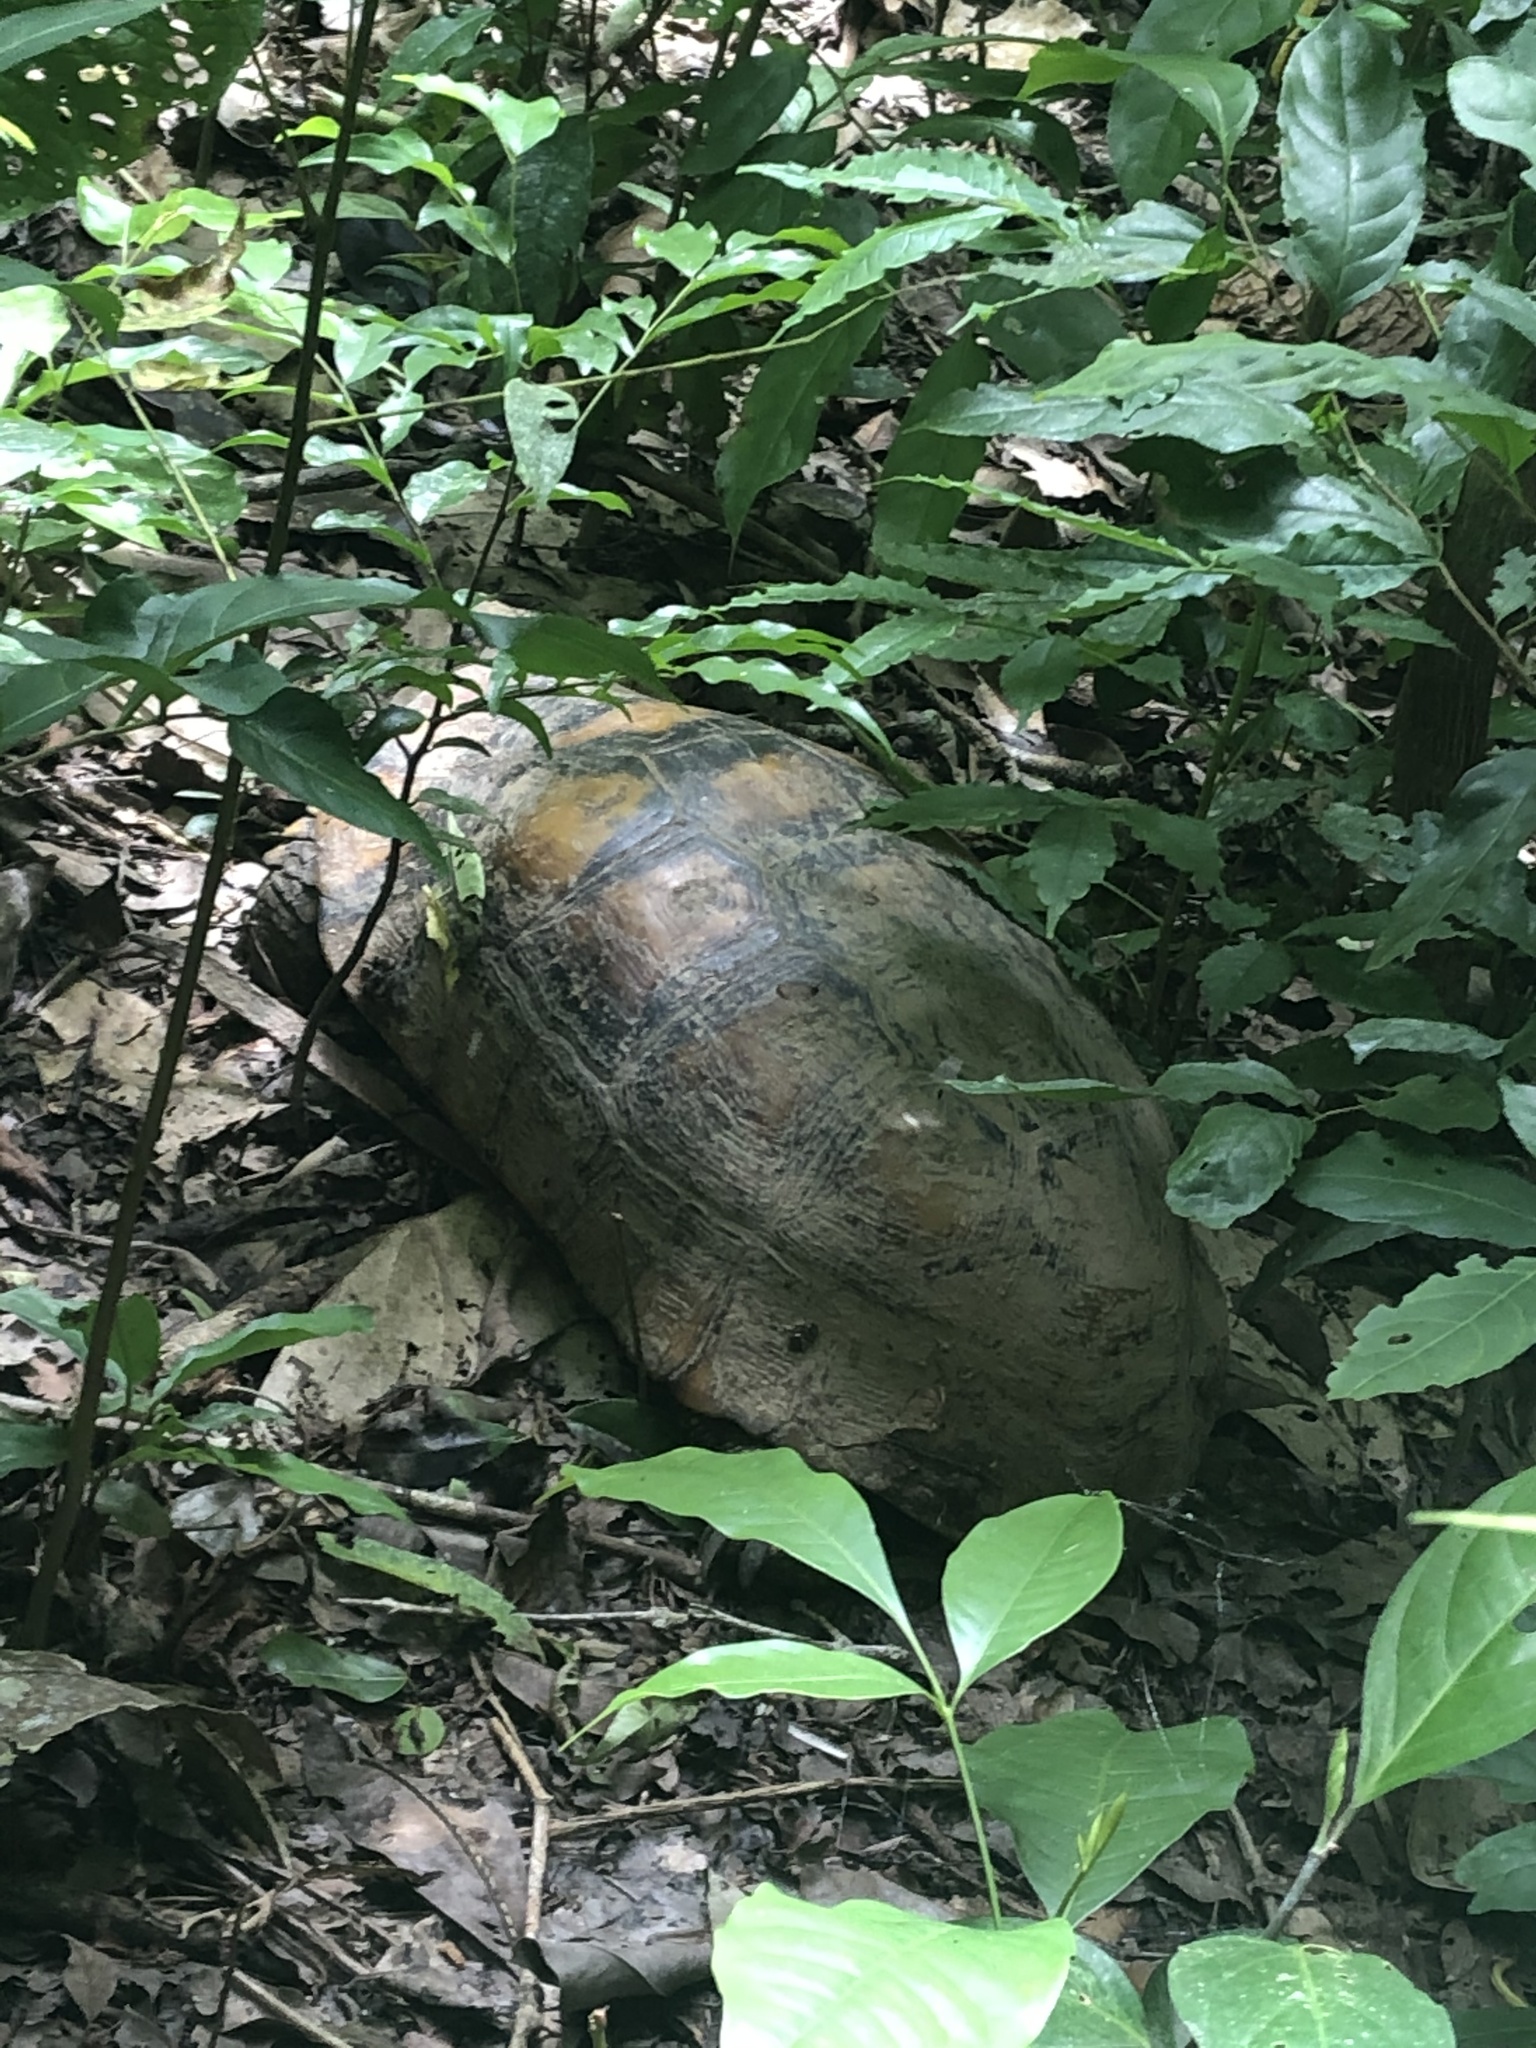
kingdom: Animalia
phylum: Chordata
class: Testudines
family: Testudinidae
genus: Chelonoidis
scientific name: Chelonoidis denticulatus
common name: Yellow-footed tortoise
